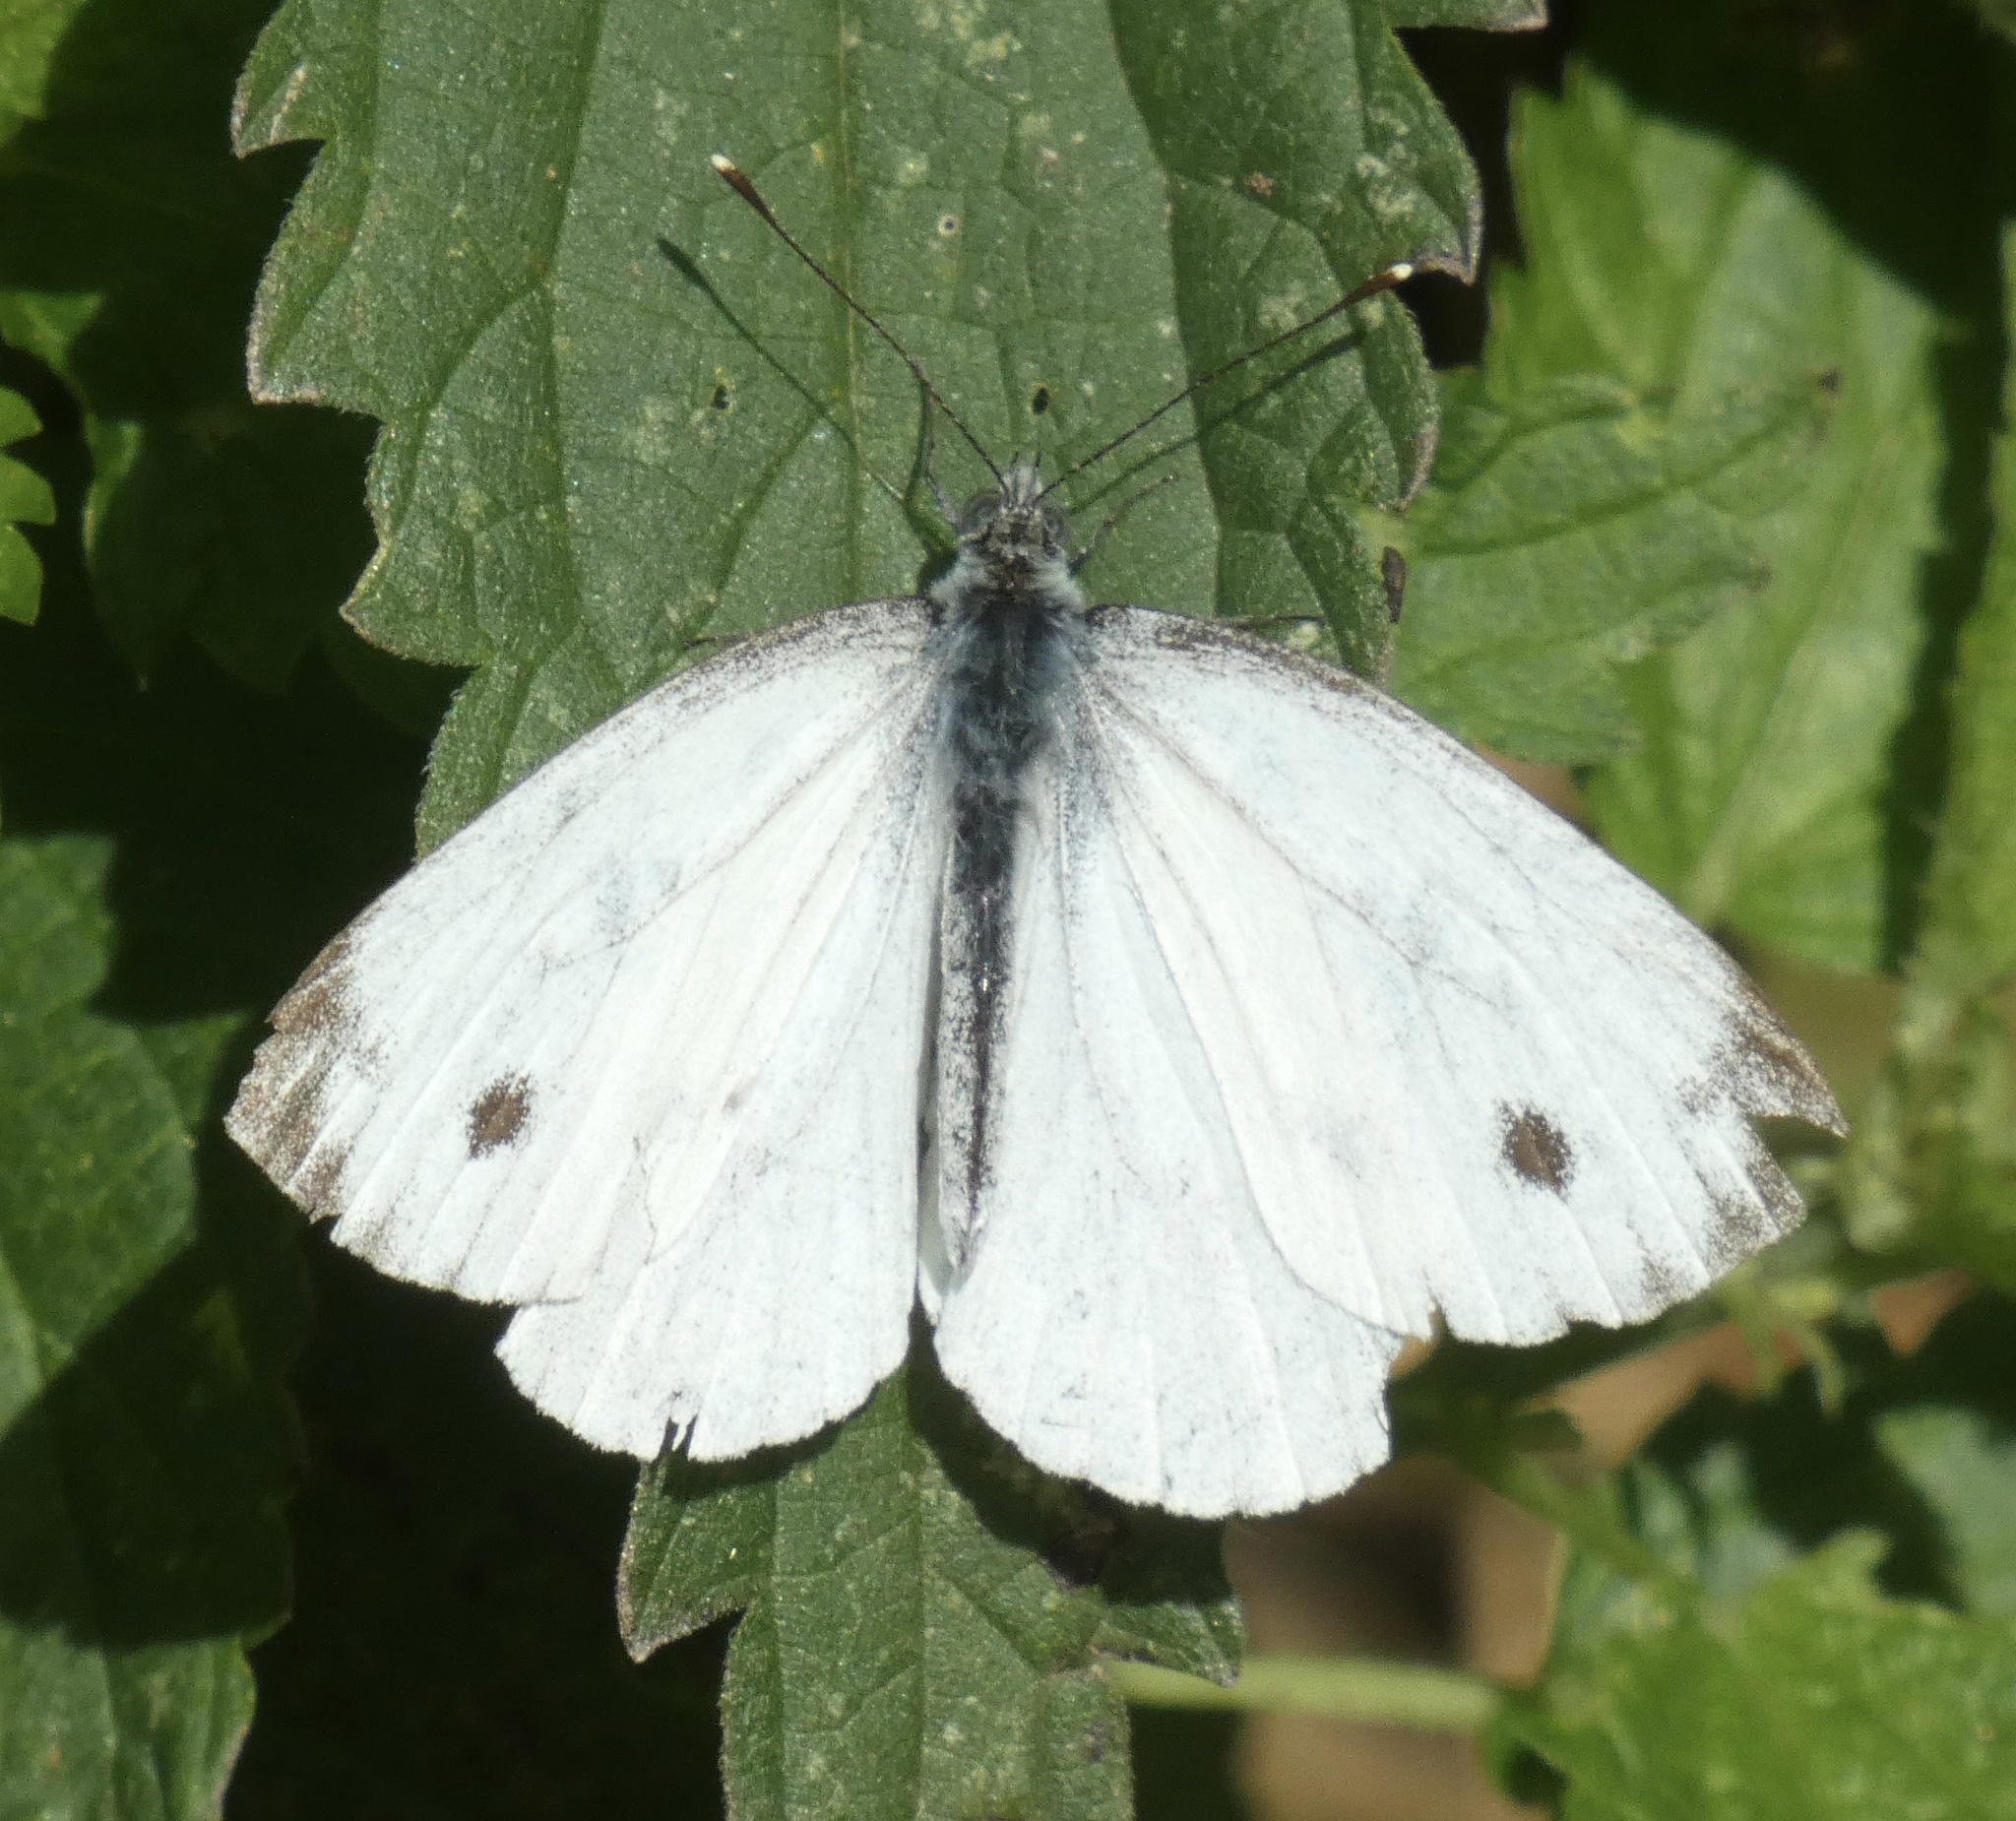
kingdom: Animalia
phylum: Arthropoda
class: Insecta
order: Lepidoptera
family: Pieridae
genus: Pieris
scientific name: Pieris napi
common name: Green-veined white
